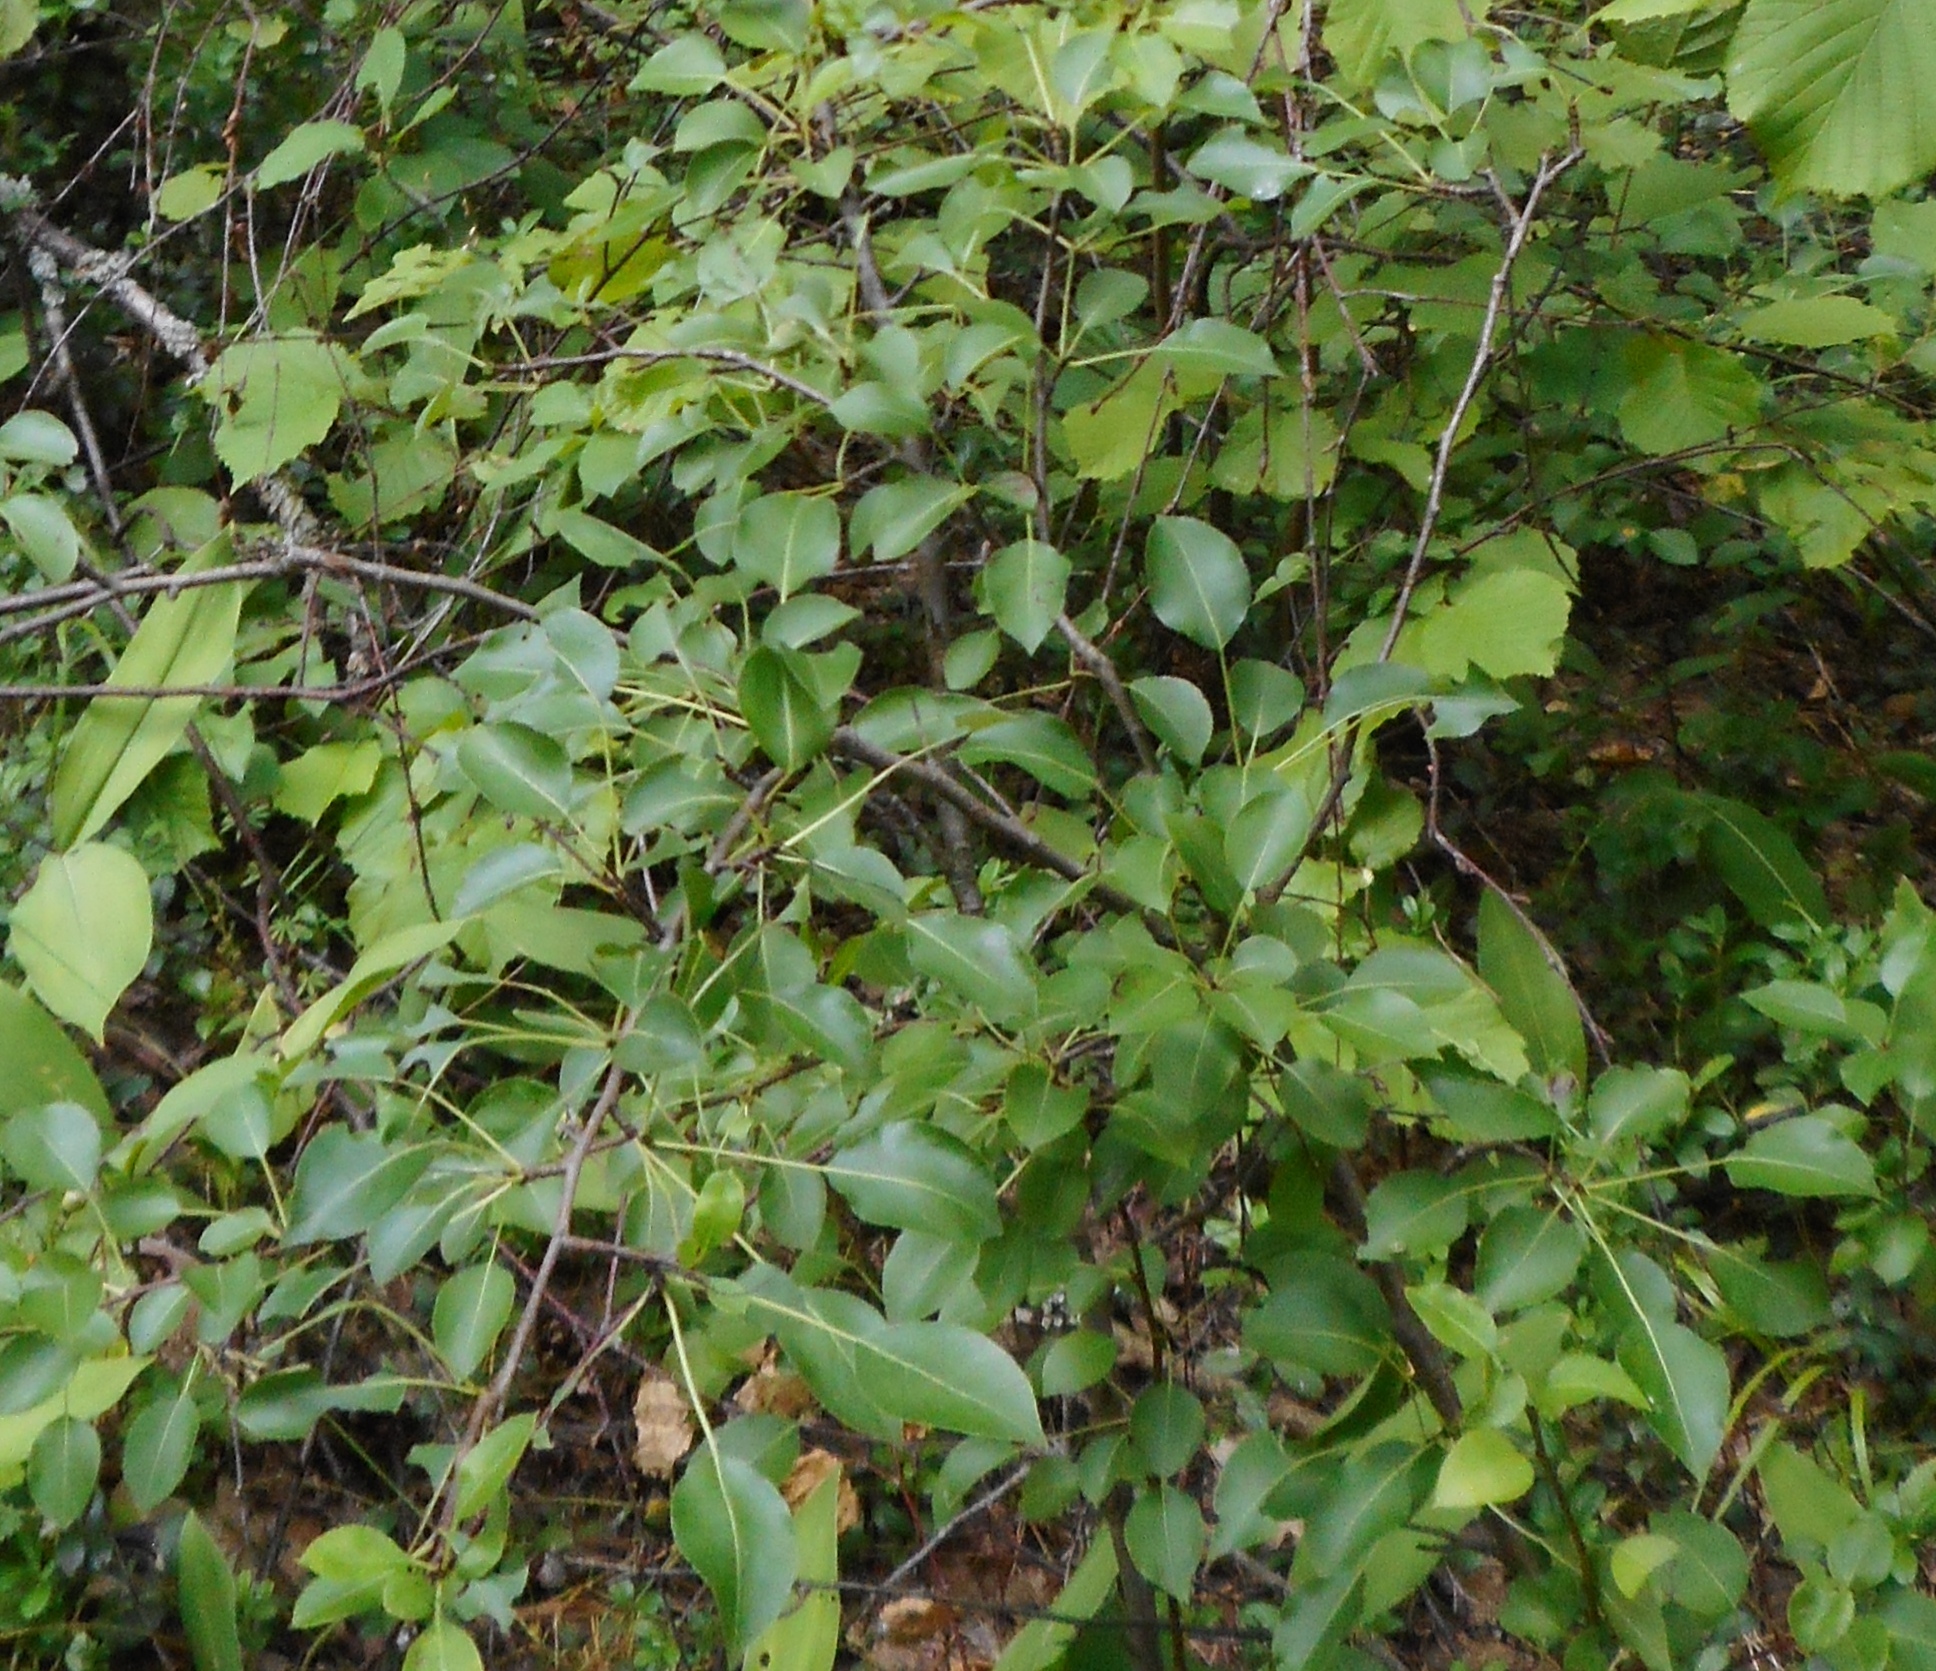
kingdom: Plantae
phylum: Tracheophyta
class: Magnoliopsida
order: Rosales
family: Rosaceae
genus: Pyrus
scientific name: Pyrus communis
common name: Pear
